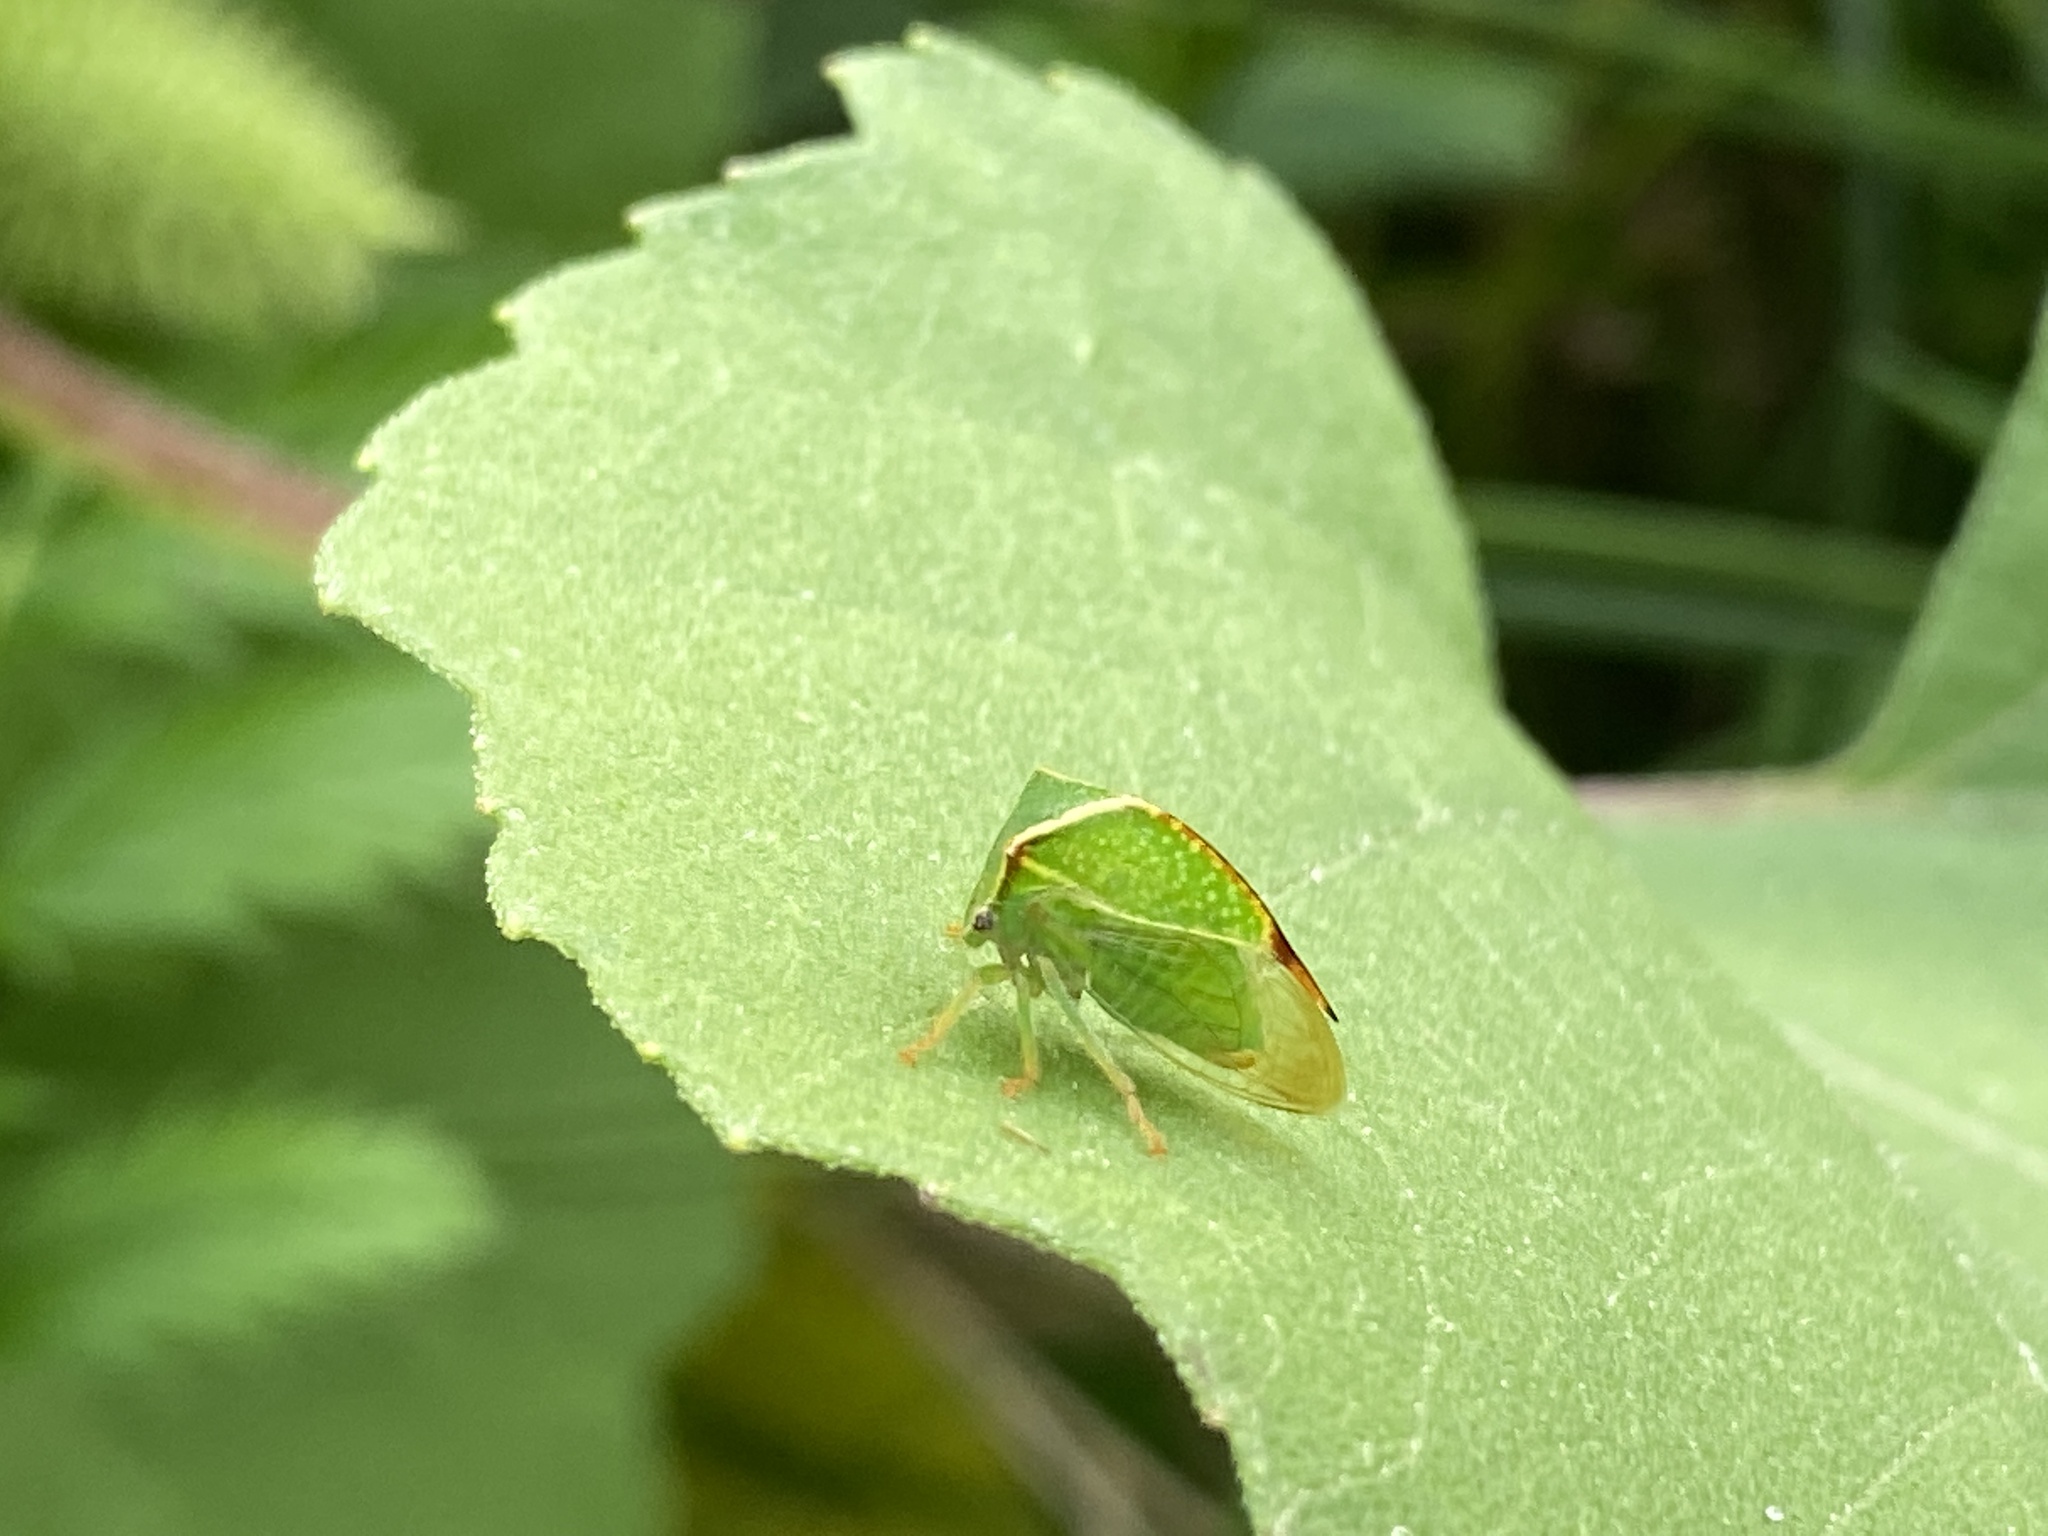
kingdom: Animalia
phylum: Arthropoda
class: Insecta
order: Hemiptera
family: Membracidae
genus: Stictocephala
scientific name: Stictocephala bisonia
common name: American buffalo treehopper
